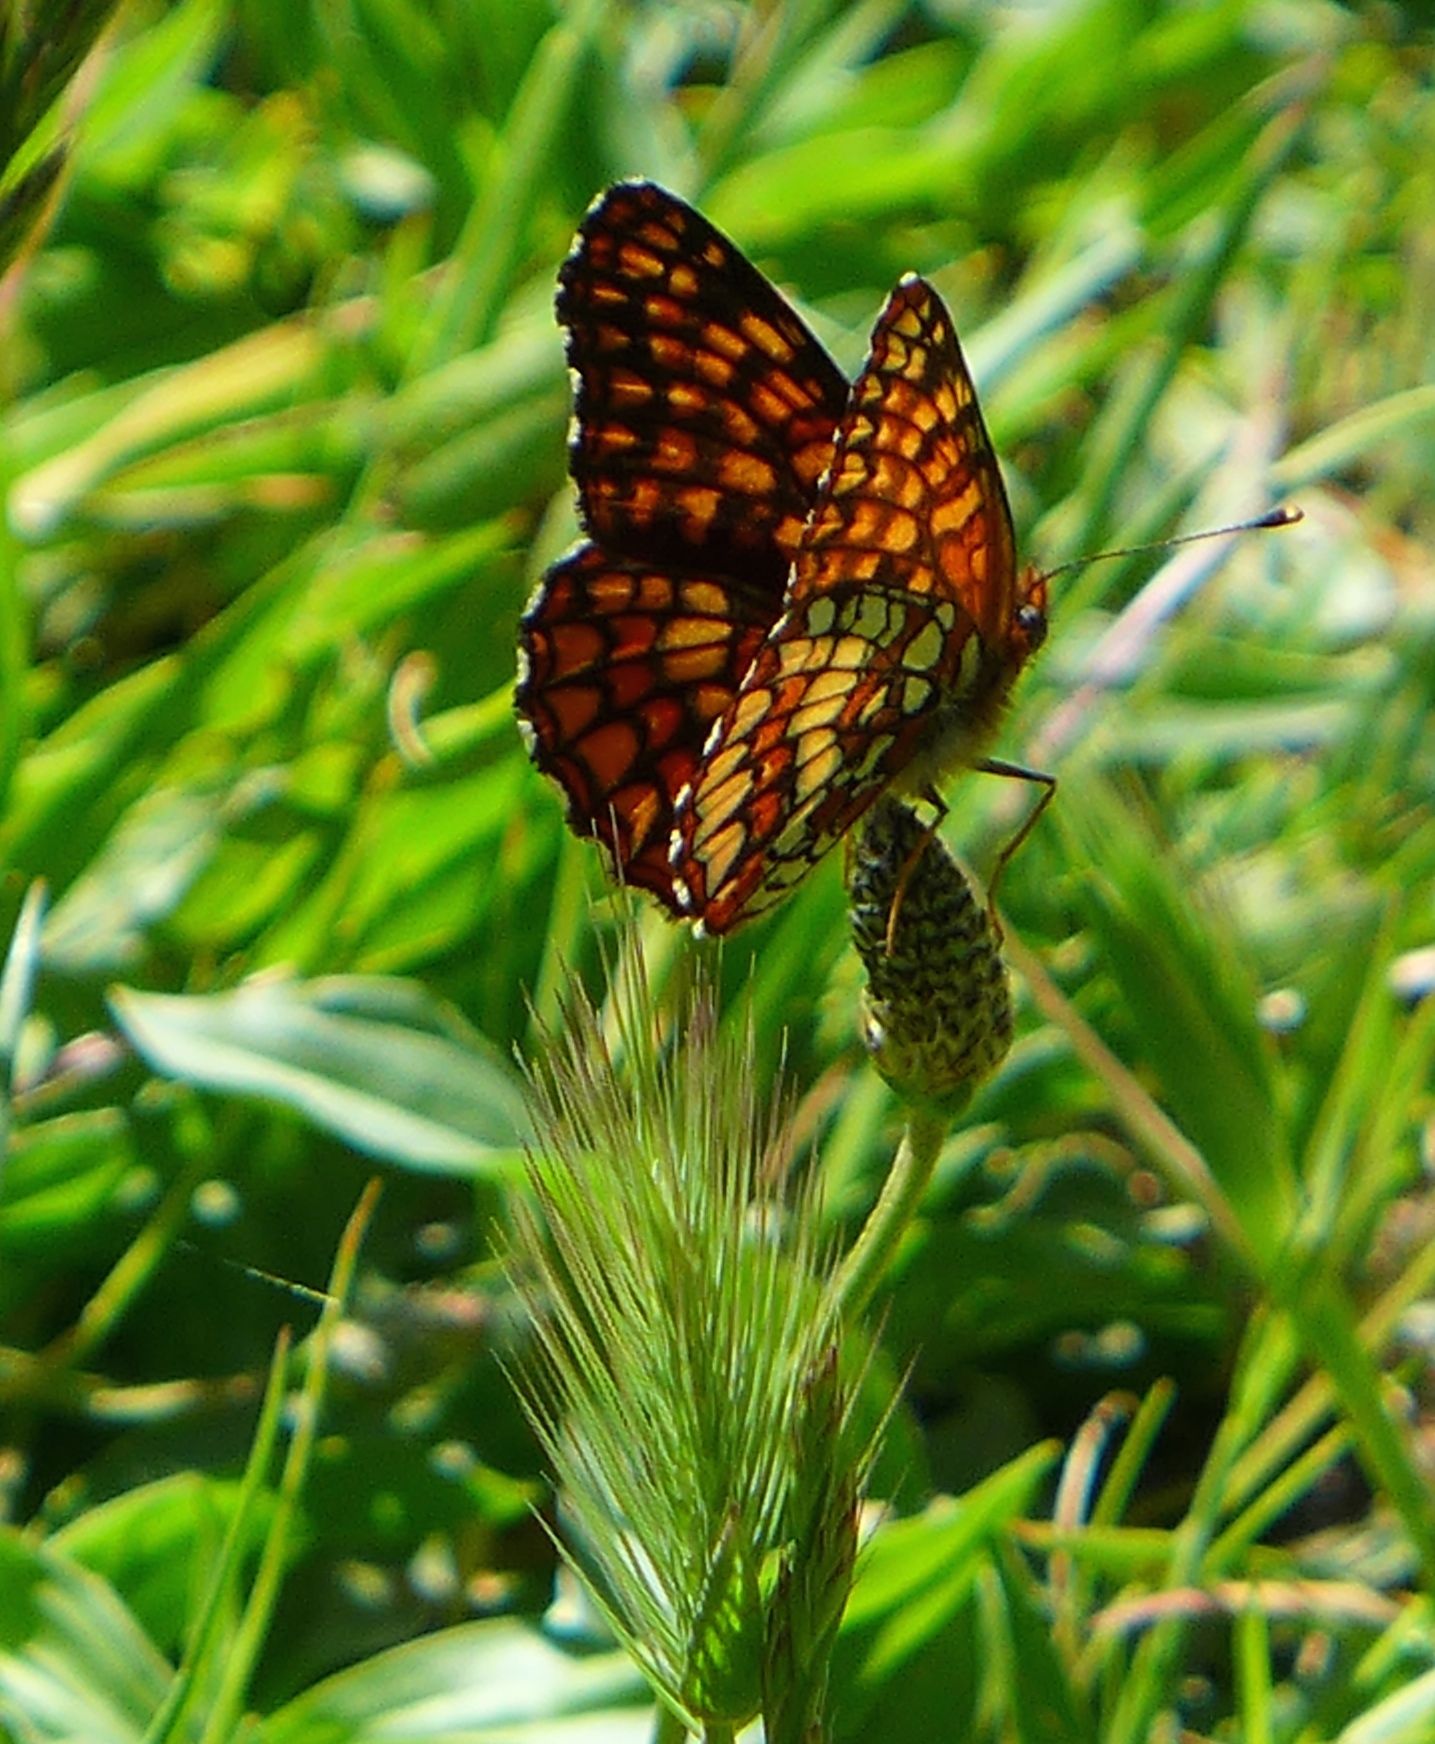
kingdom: Animalia
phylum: Arthropoda
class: Insecta
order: Lepidoptera
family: Nymphalidae
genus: Chlosyne
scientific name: Chlosyne palla
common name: Northern checkerspot
